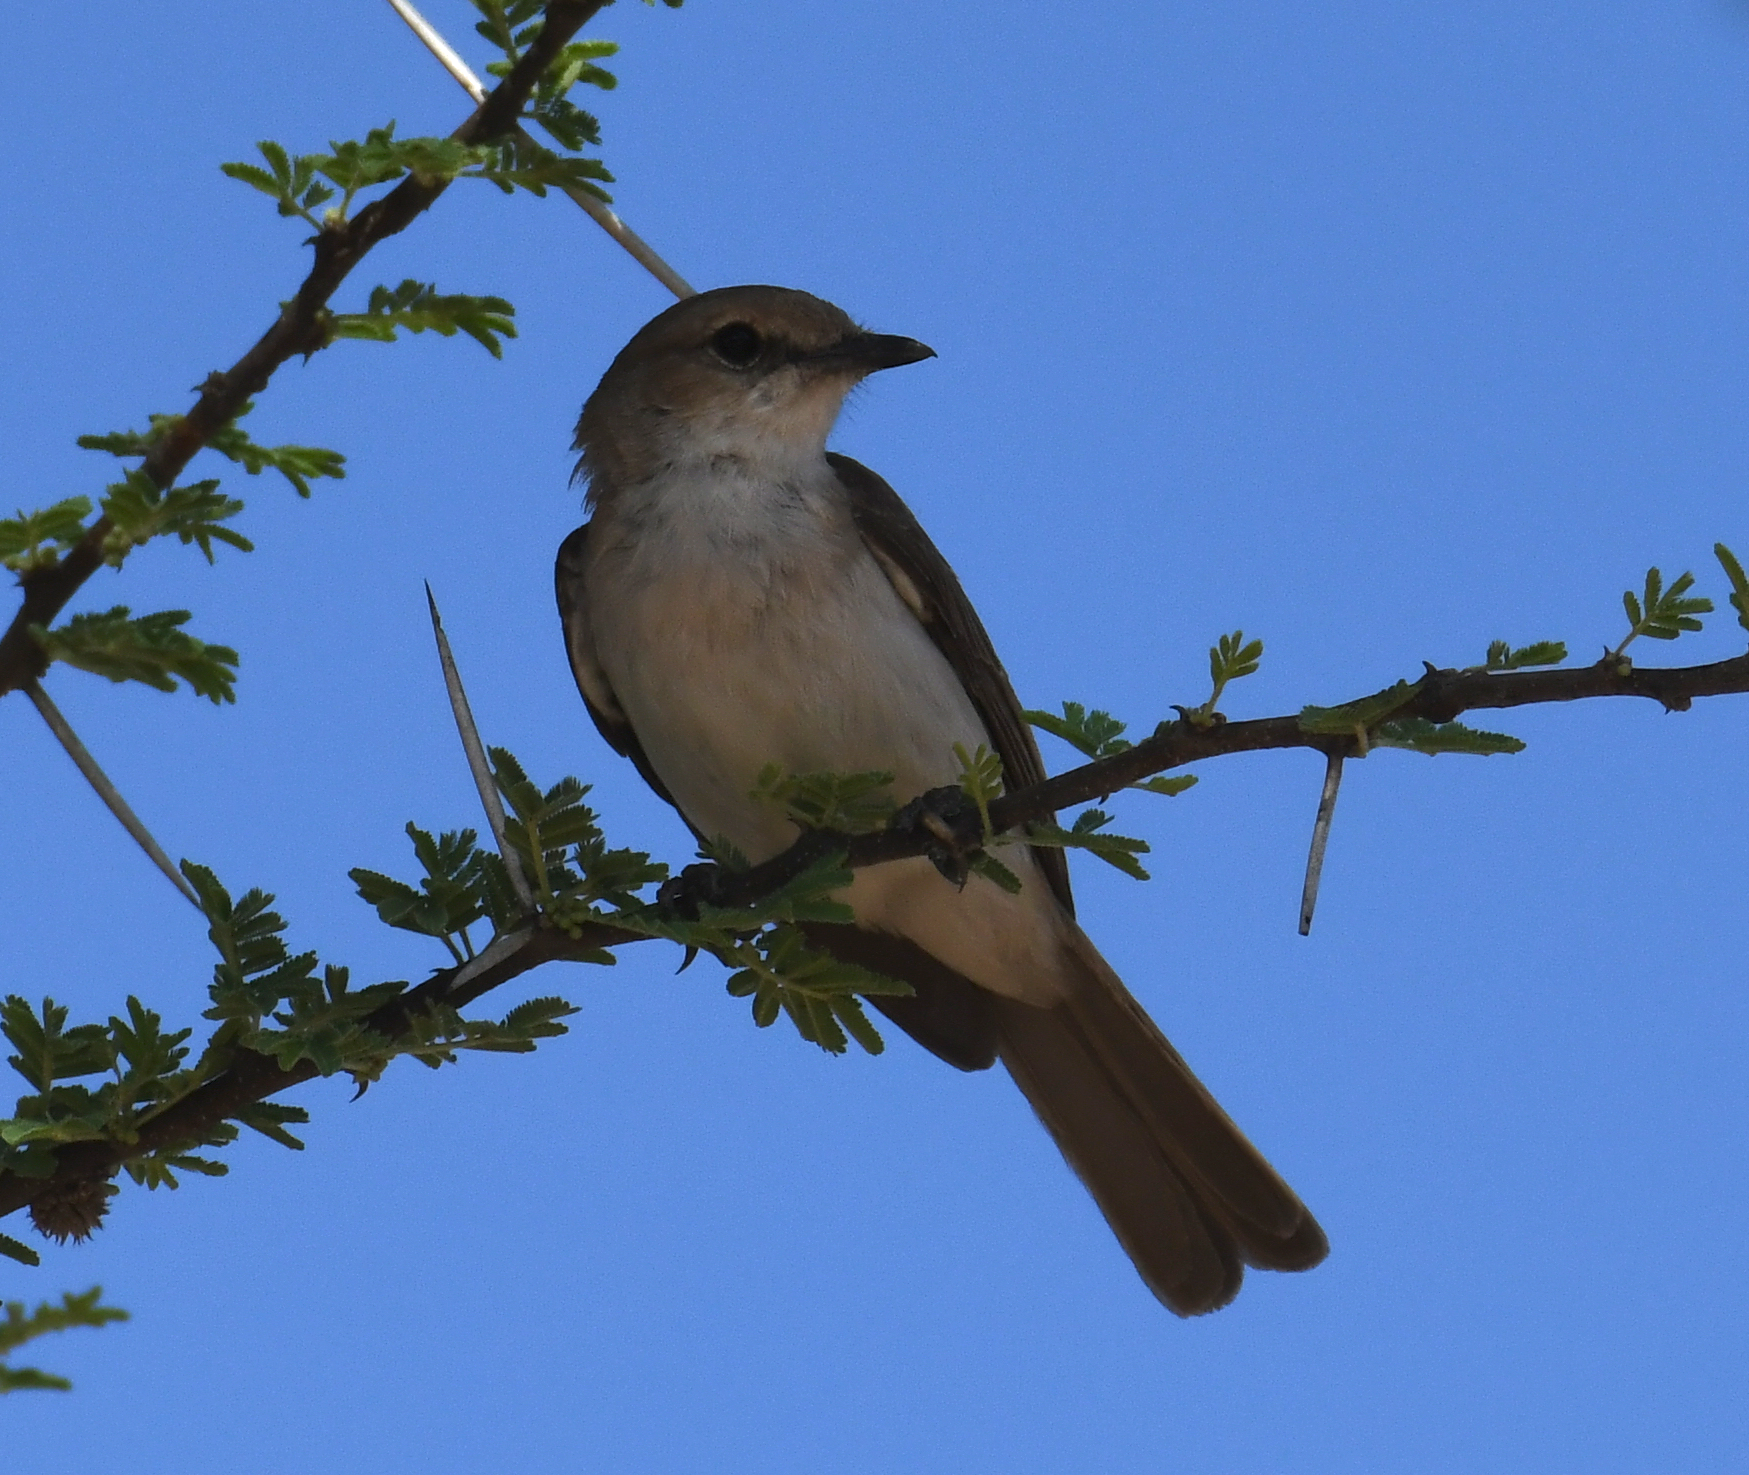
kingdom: Animalia
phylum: Chordata
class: Aves
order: Passeriformes
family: Muscicapidae
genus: Bradornis
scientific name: Bradornis mariquensis
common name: Marico flycatcher
